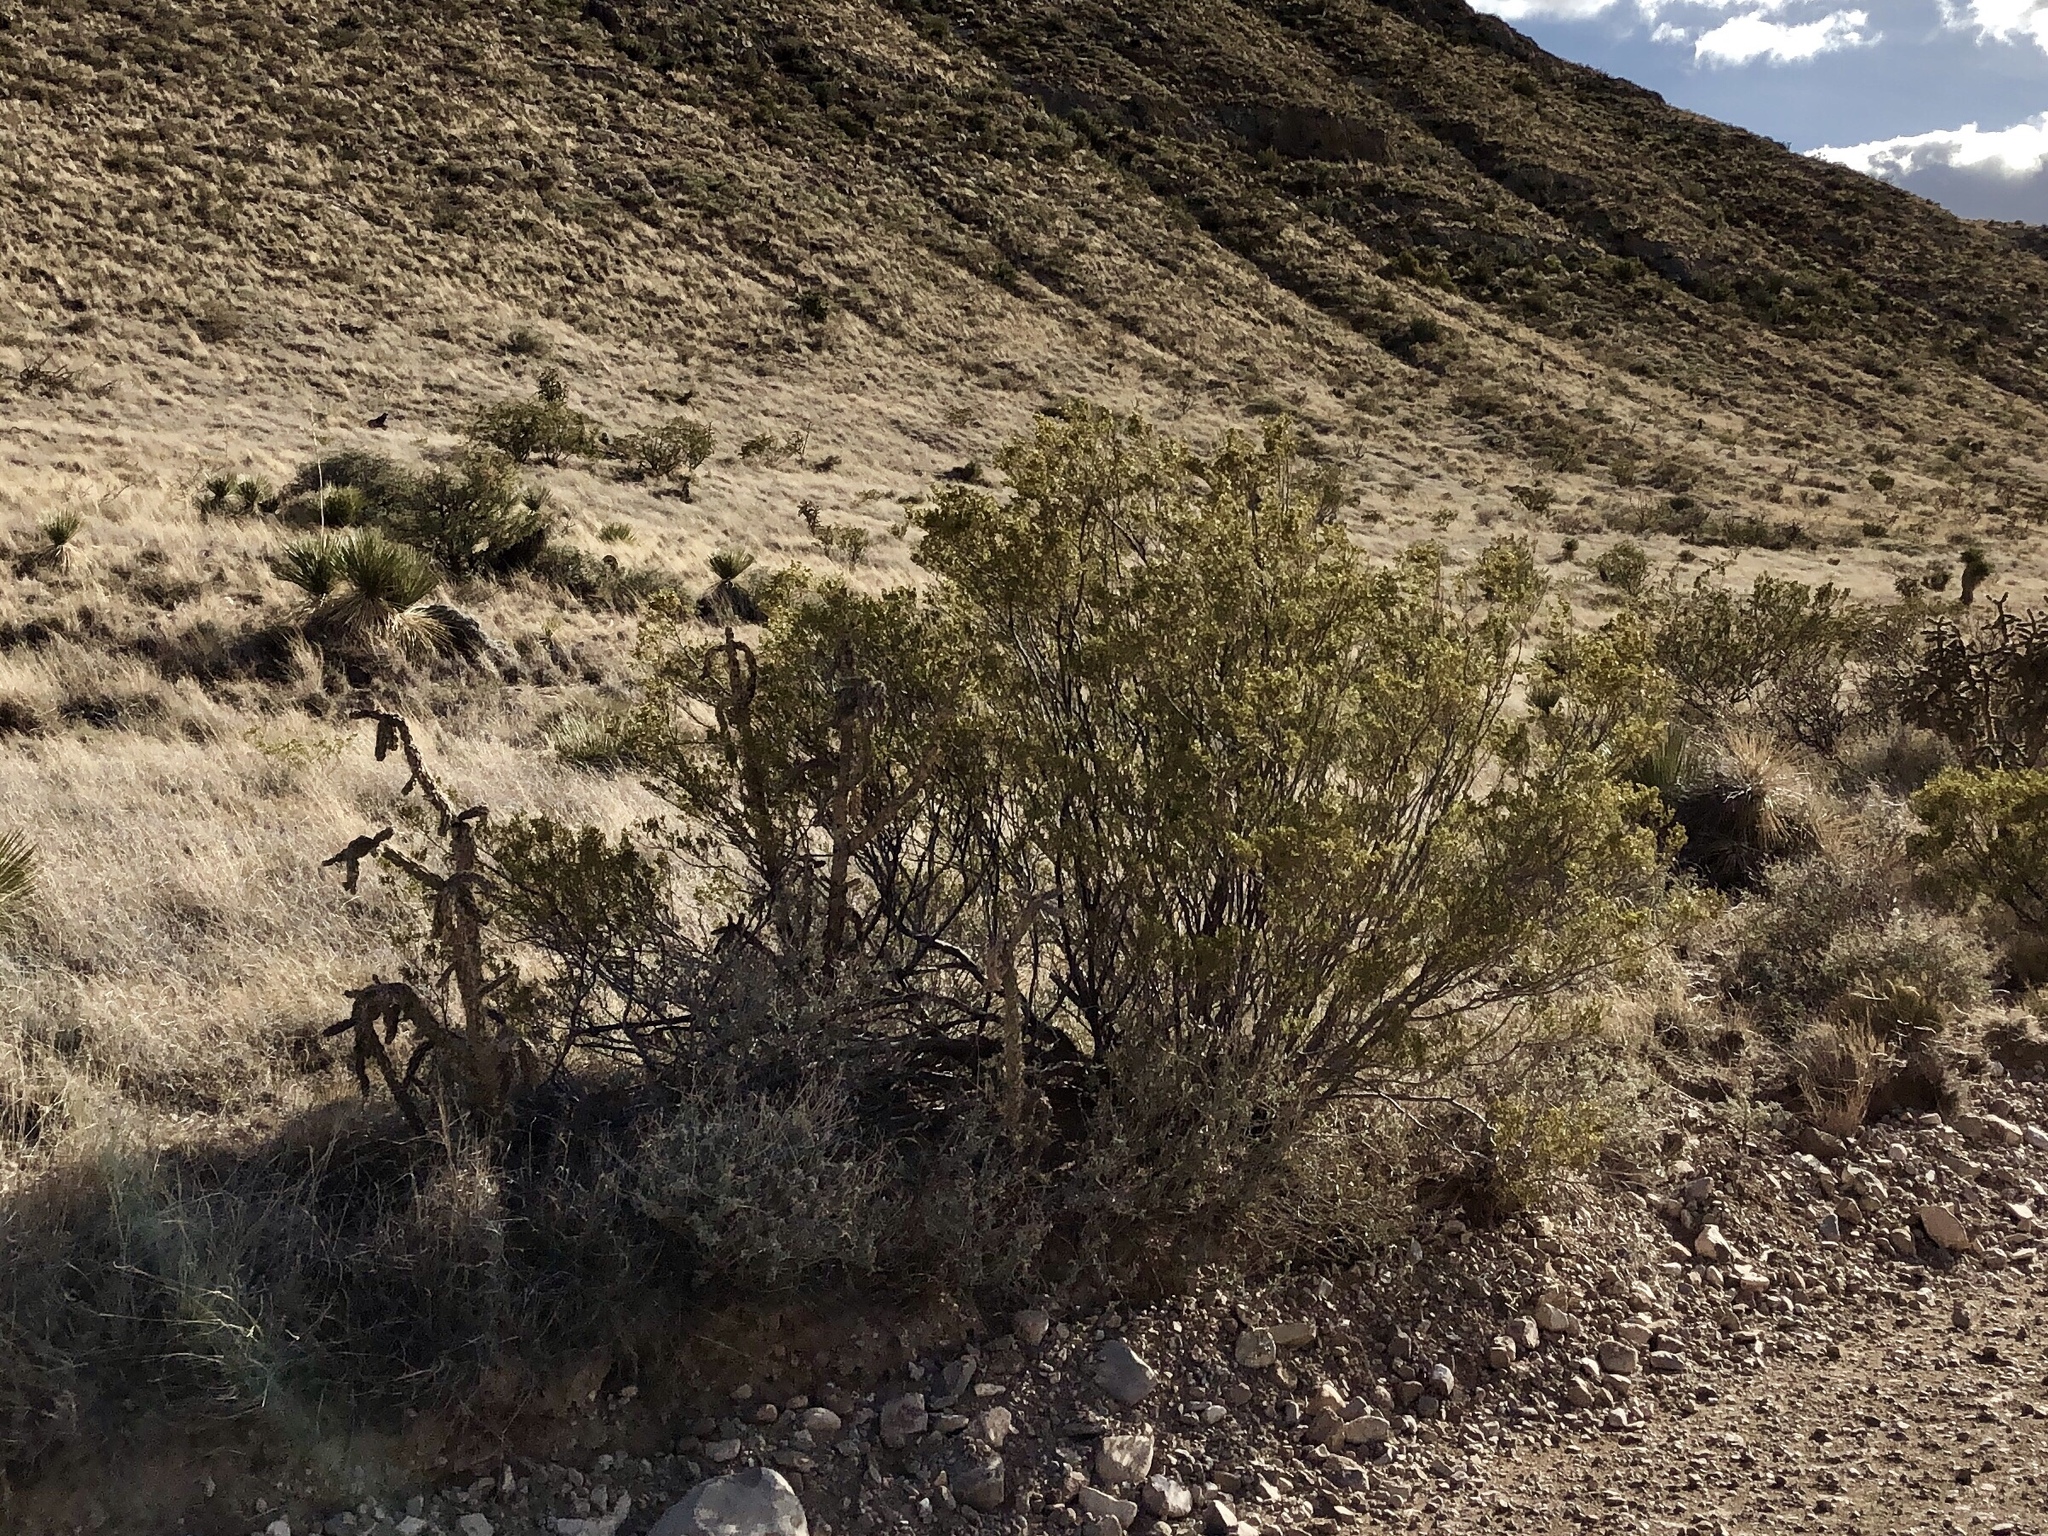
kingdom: Plantae
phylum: Tracheophyta
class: Magnoliopsida
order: Zygophyllales
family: Zygophyllaceae
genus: Larrea
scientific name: Larrea tridentata
